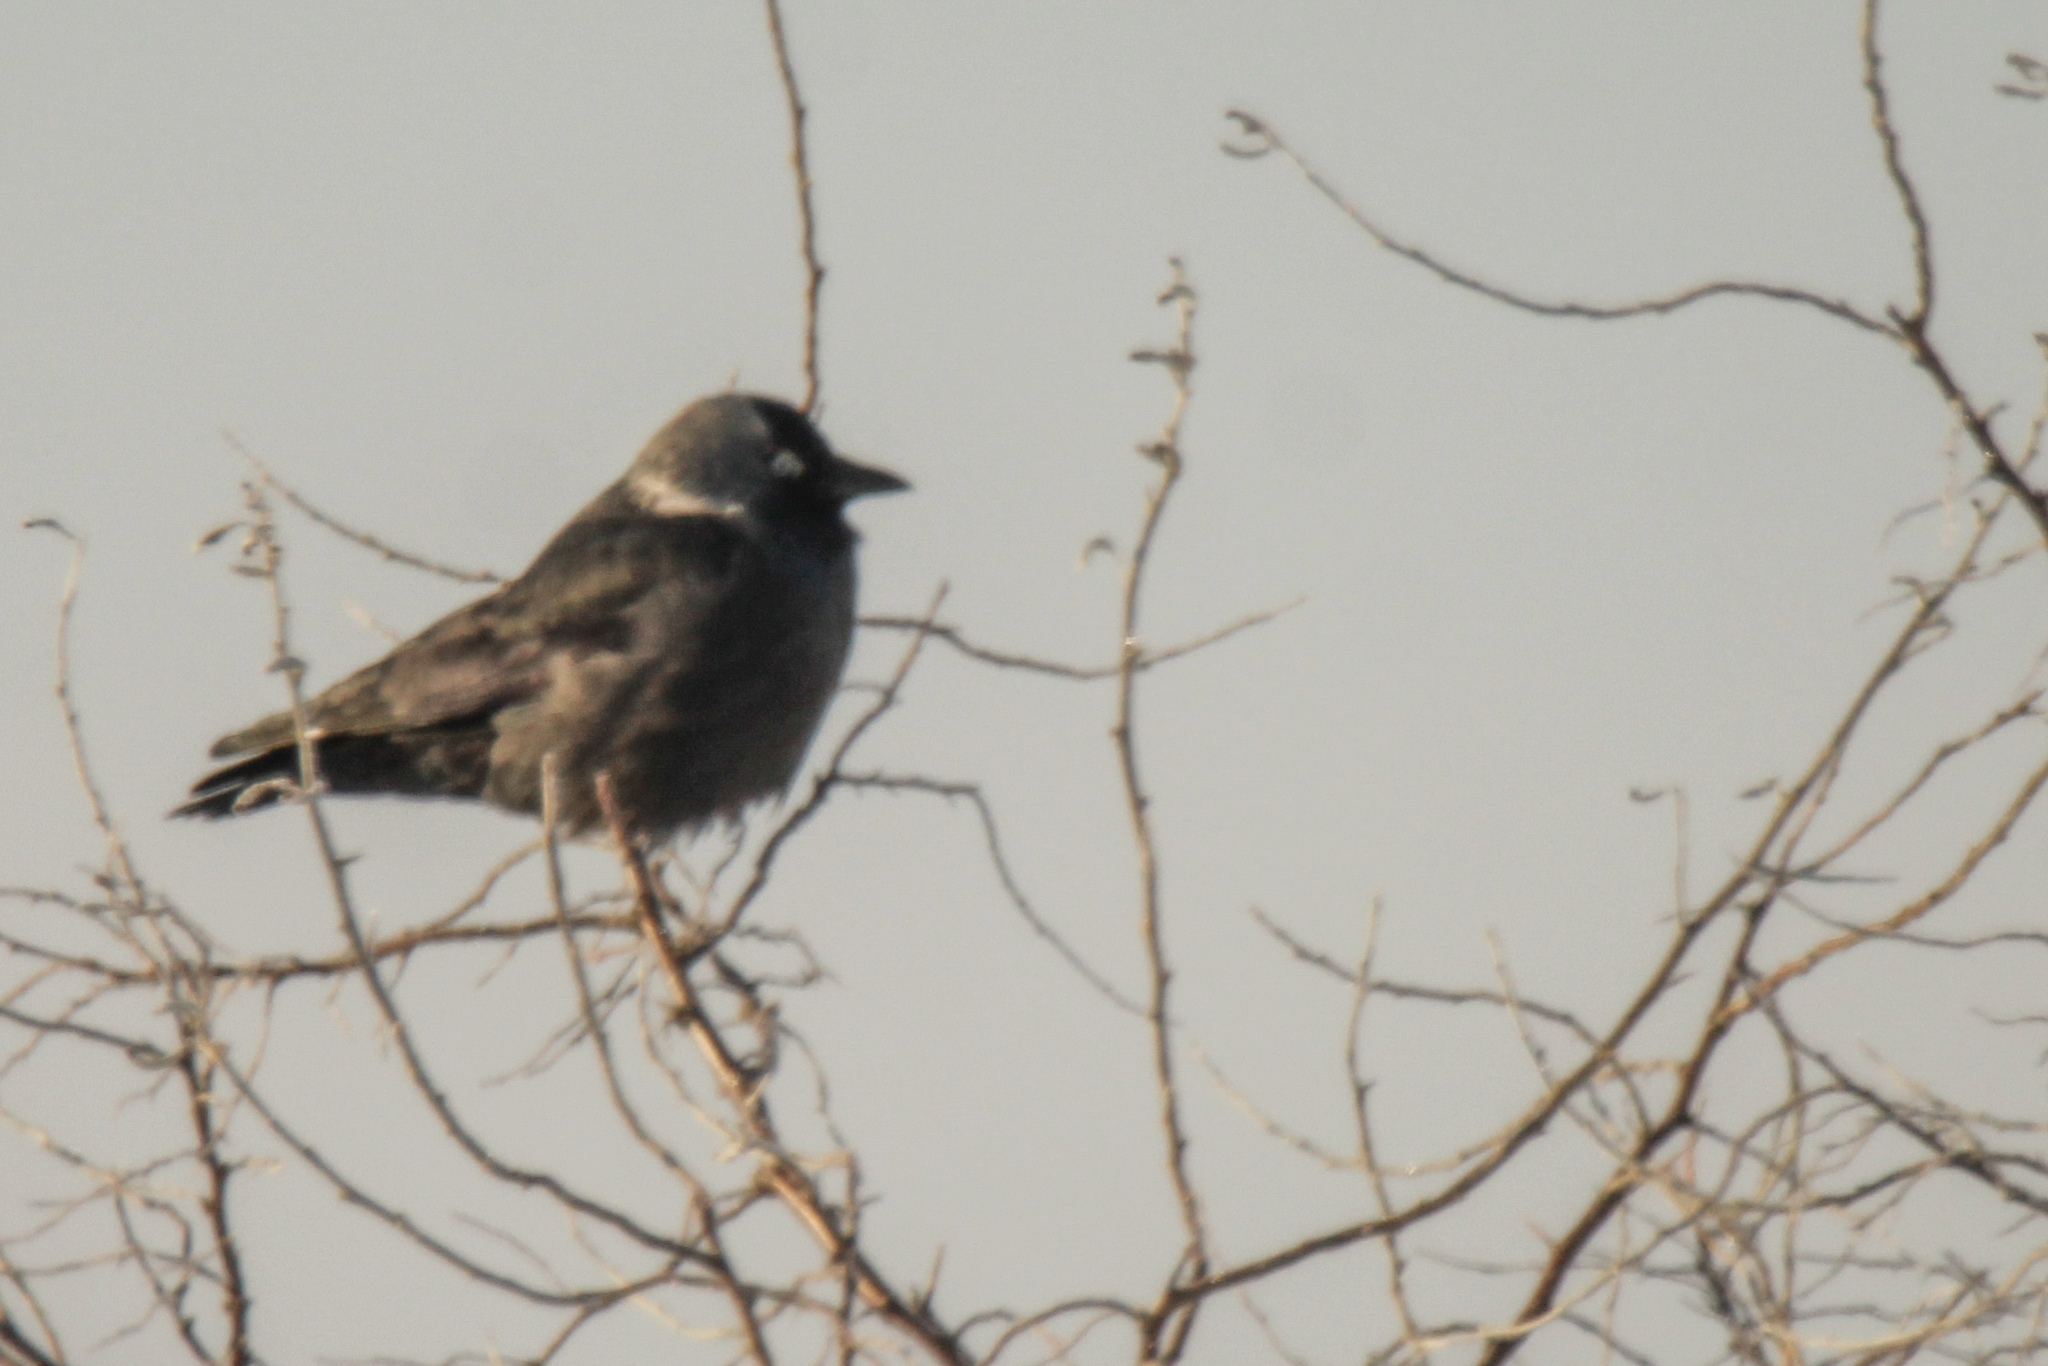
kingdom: Animalia
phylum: Chordata
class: Aves
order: Passeriformes
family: Corvidae
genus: Coloeus
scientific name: Coloeus monedula
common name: Western jackdaw
